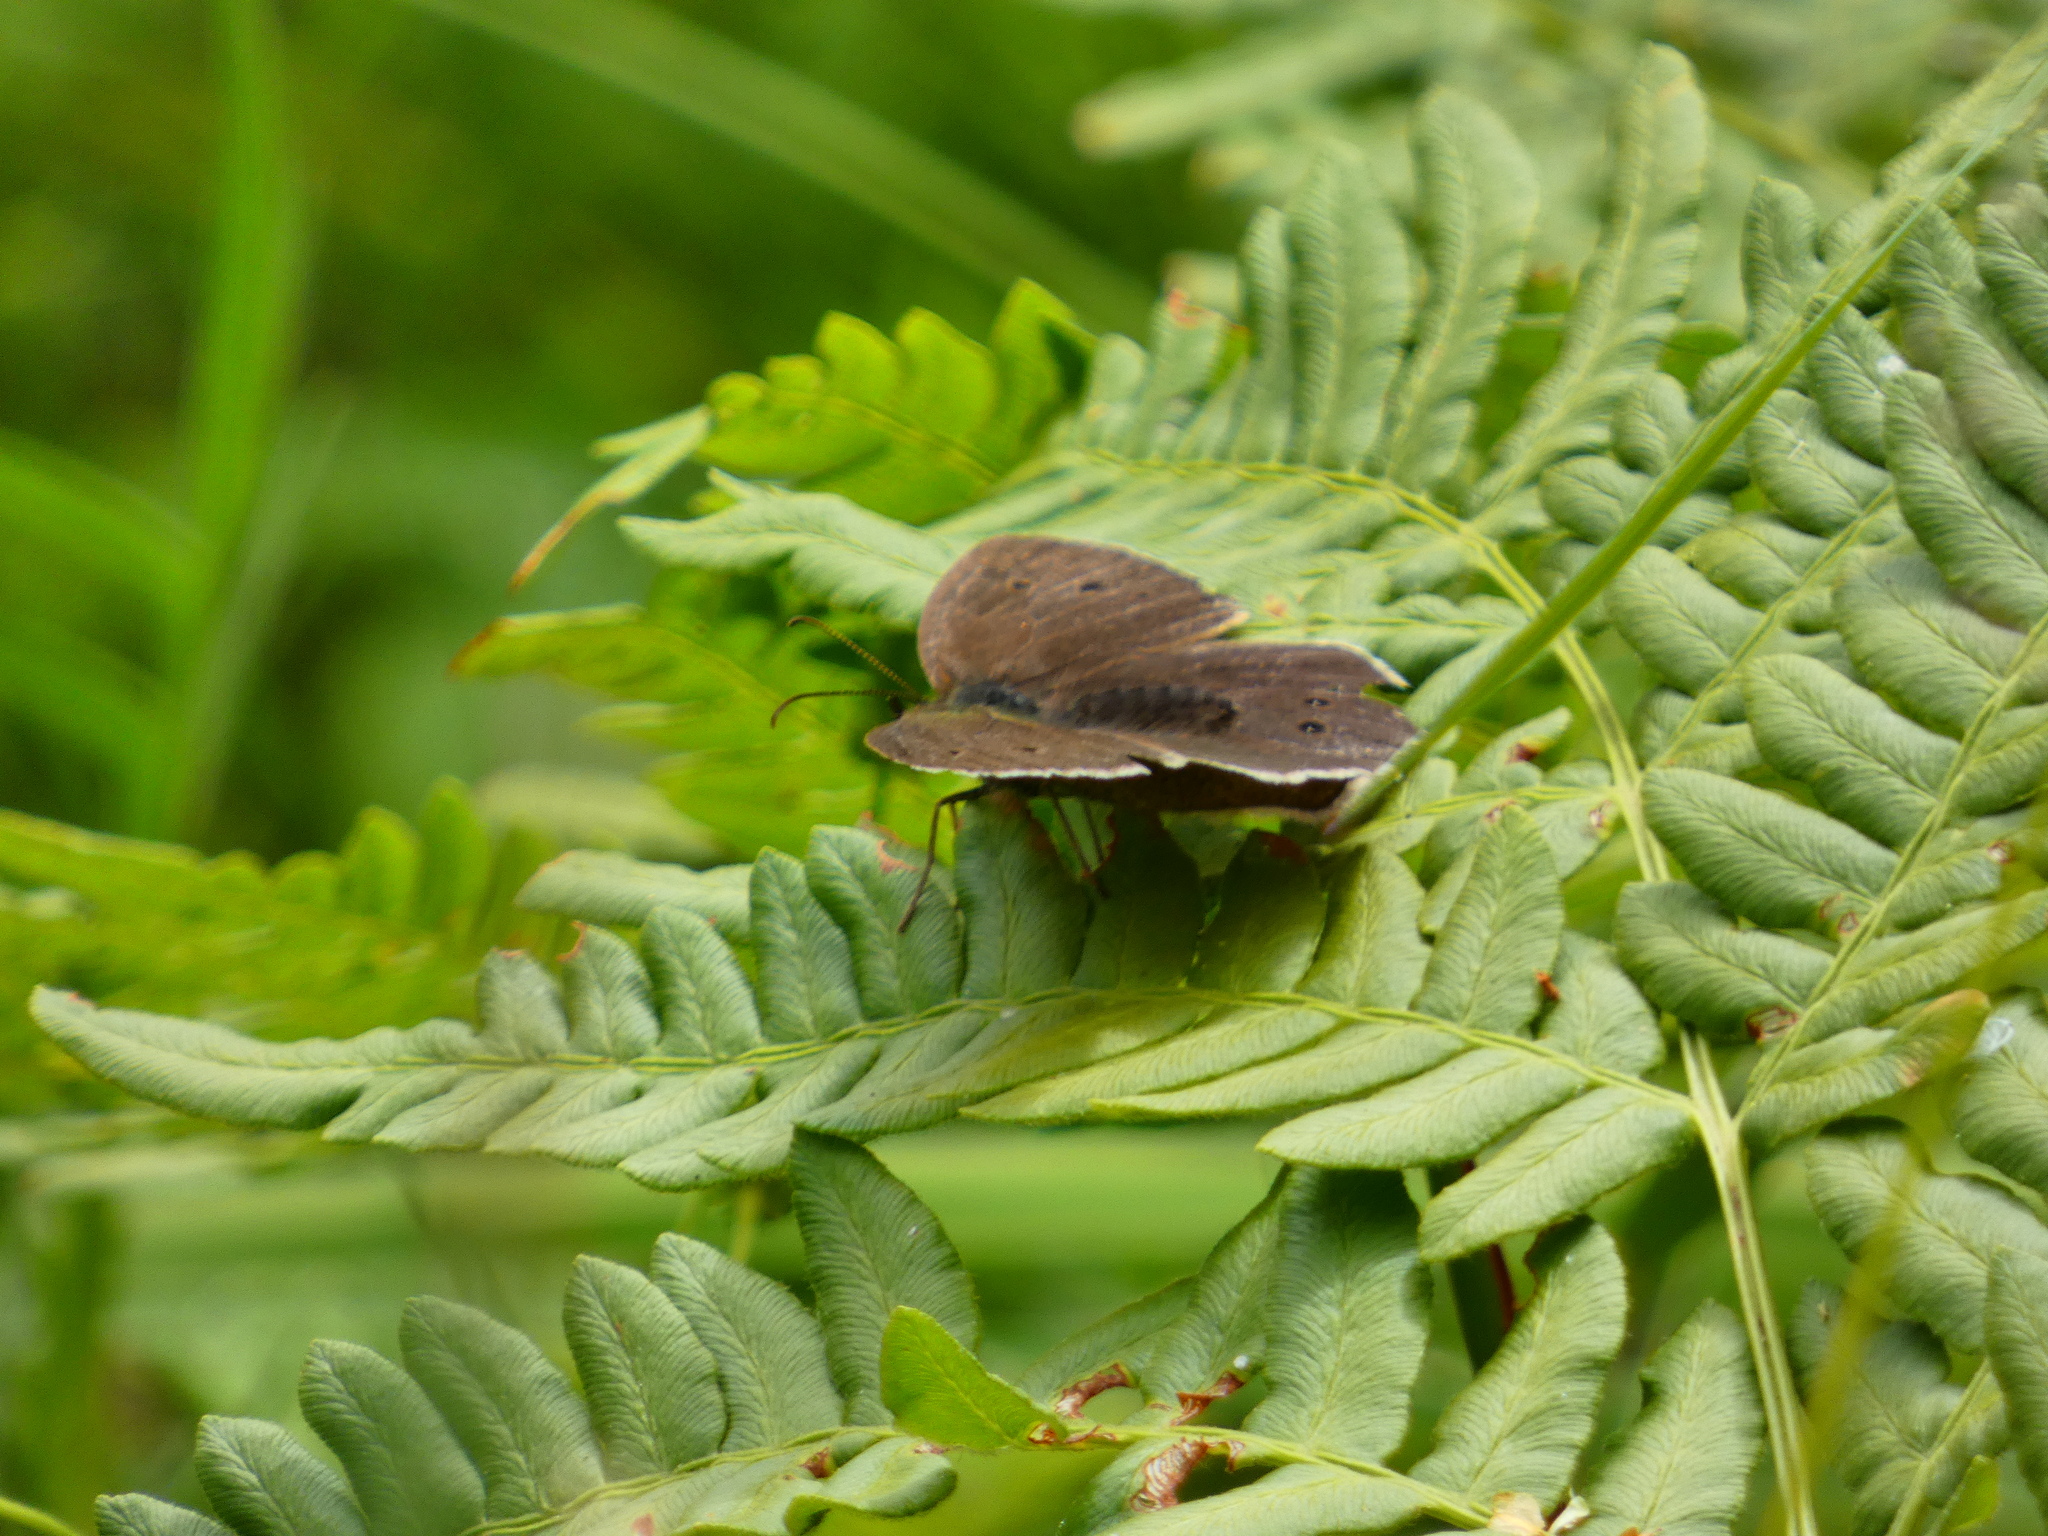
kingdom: Animalia
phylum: Arthropoda
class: Insecta
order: Lepidoptera
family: Nymphalidae
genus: Aphantopus
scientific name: Aphantopus hyperantus
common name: Ringlet
